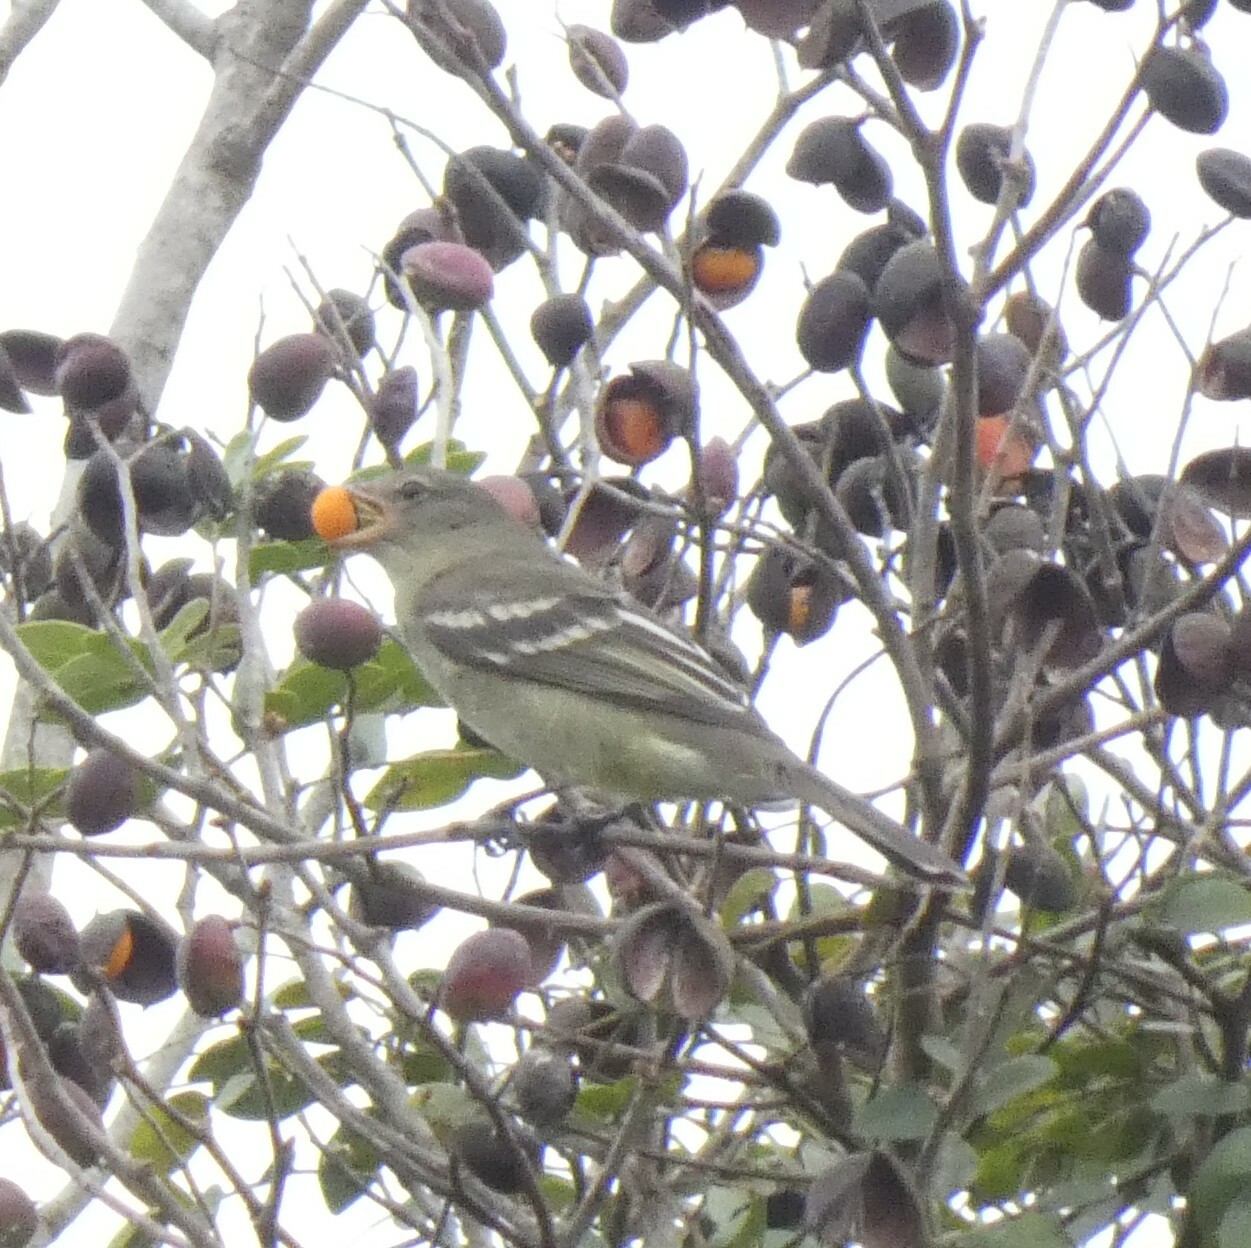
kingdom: Animalia
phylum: Chordata
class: Aves
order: Passeriformes
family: Tyrannidae
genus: Elaenia
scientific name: Elaenia sordida
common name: Small-headed elaenia
